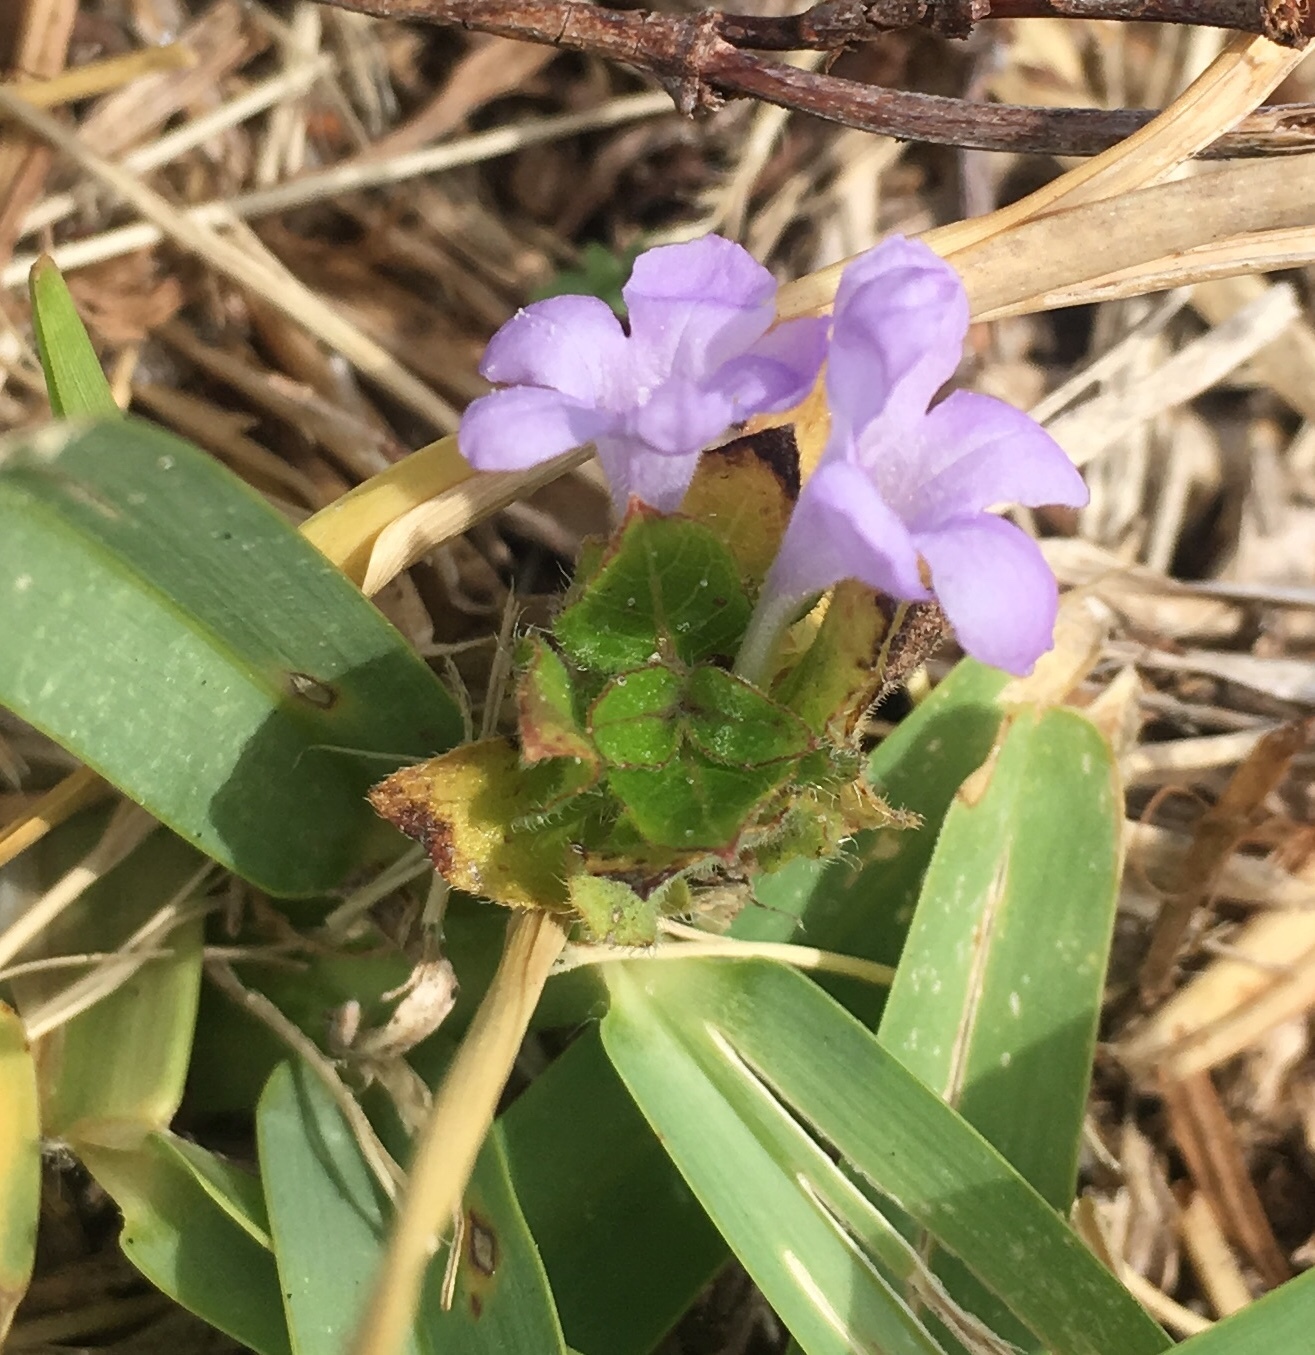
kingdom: Plantae
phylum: Tracheophyta
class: Magnoliopsida
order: Lamiales
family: Acanthaceae
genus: Ruellia
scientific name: Ruellia blechum
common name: Browne's blechum
